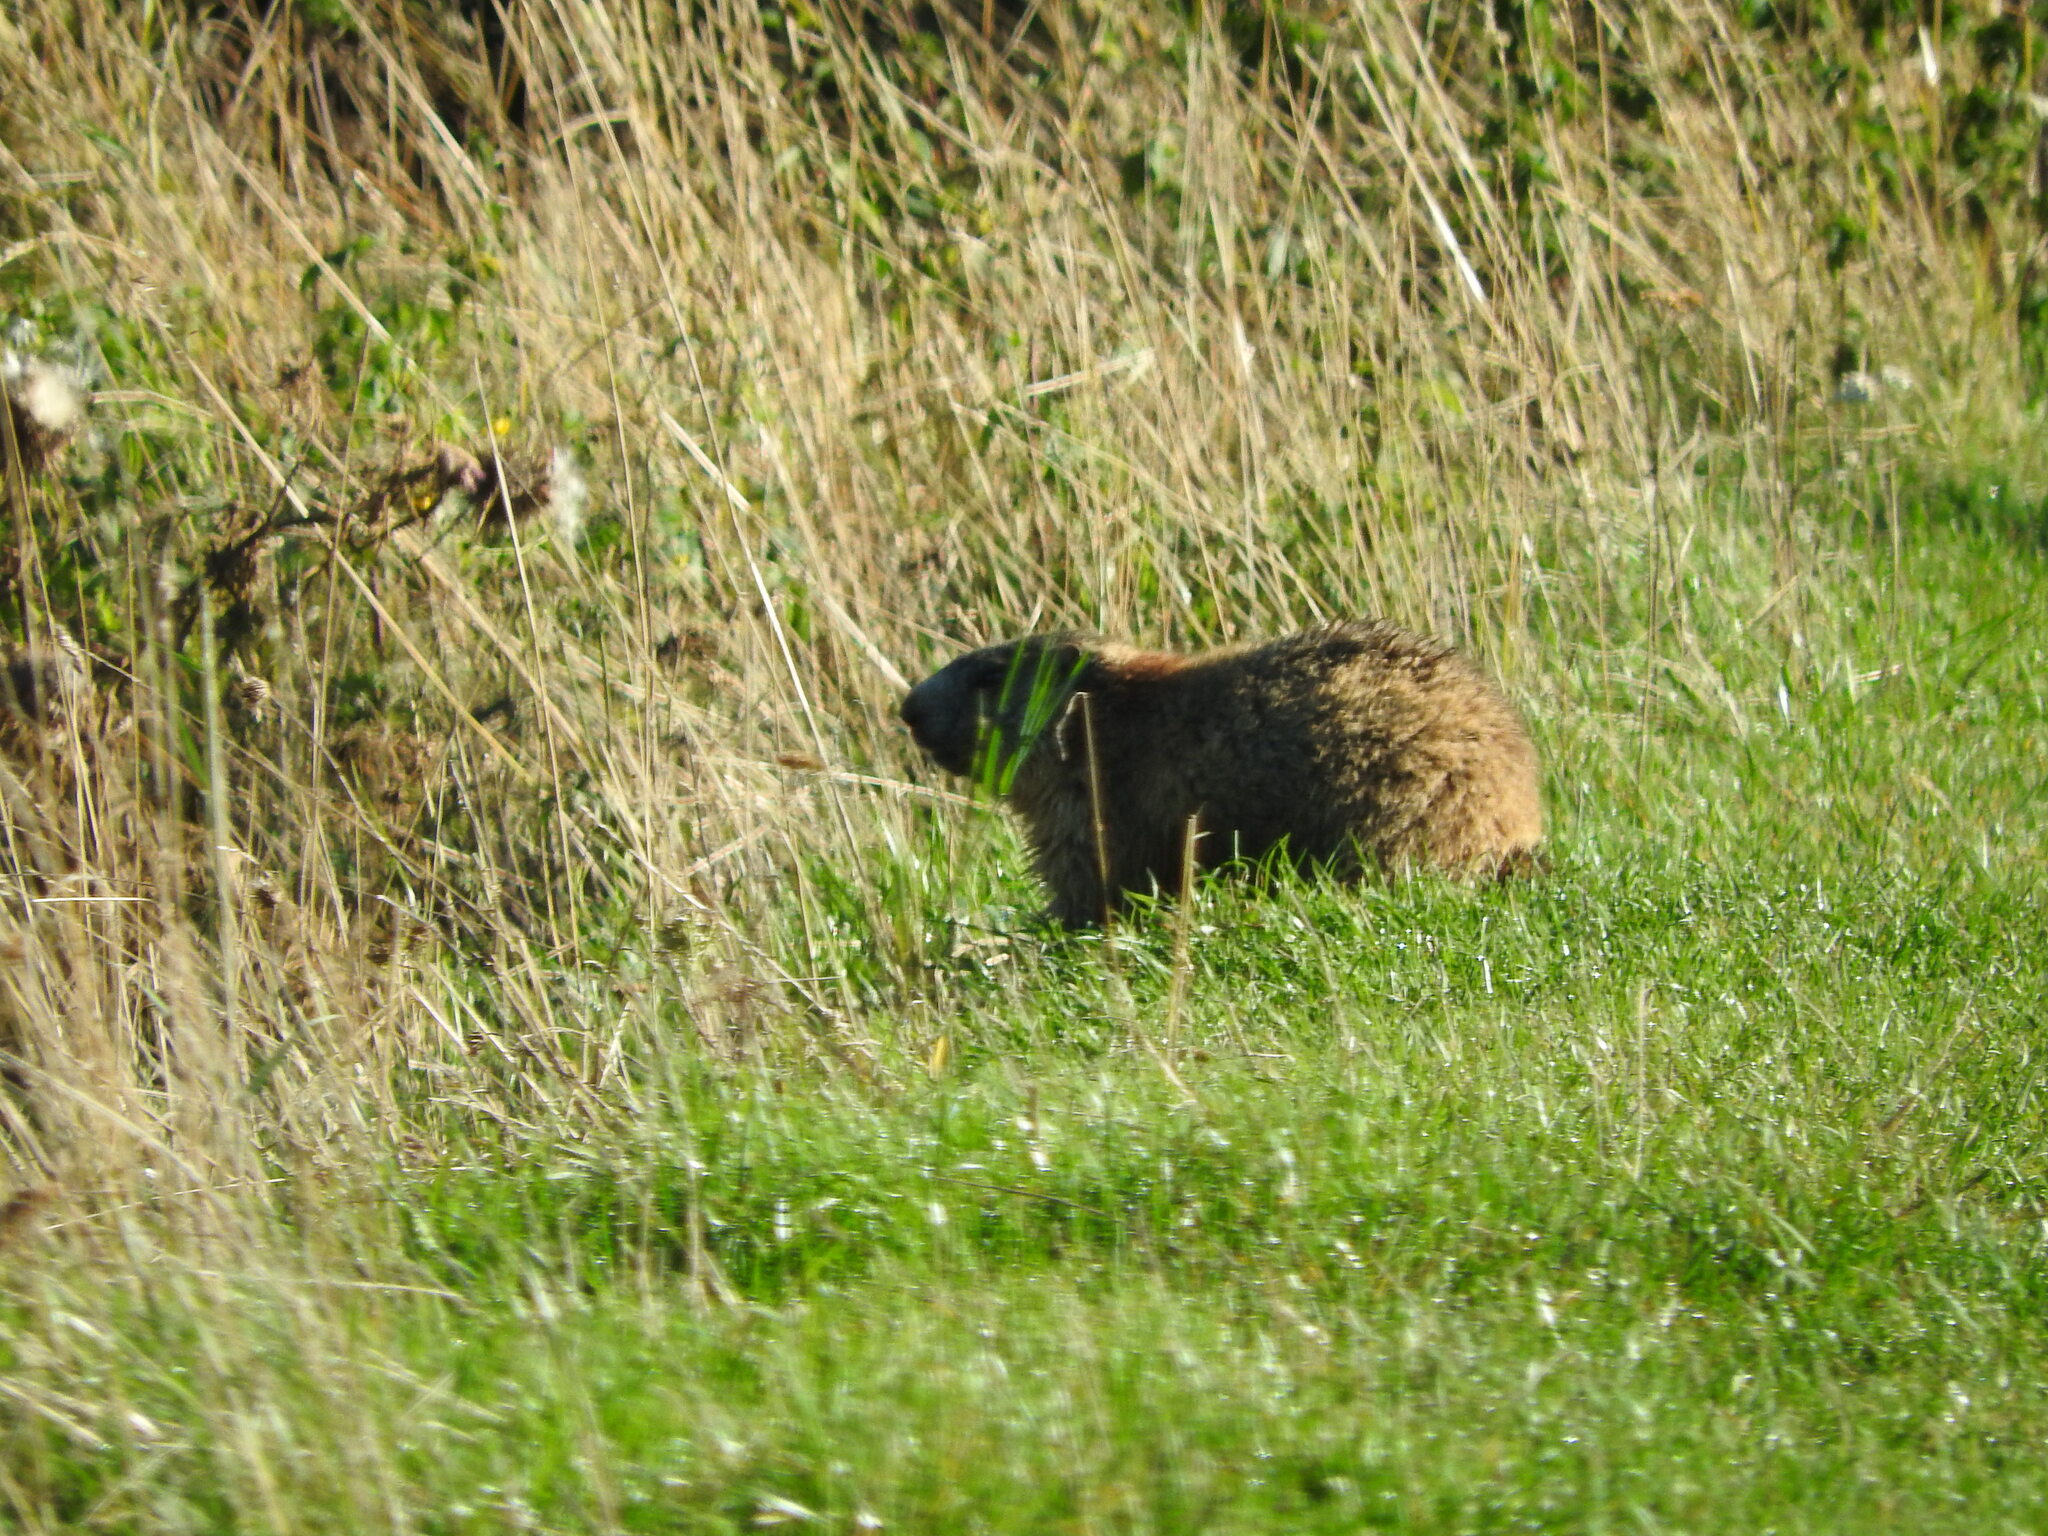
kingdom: Animalia
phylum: Chordata
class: Mammalia
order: Rodentia
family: Sciuridae
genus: Marmota
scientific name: Marmota marmota
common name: Alpine marmot
